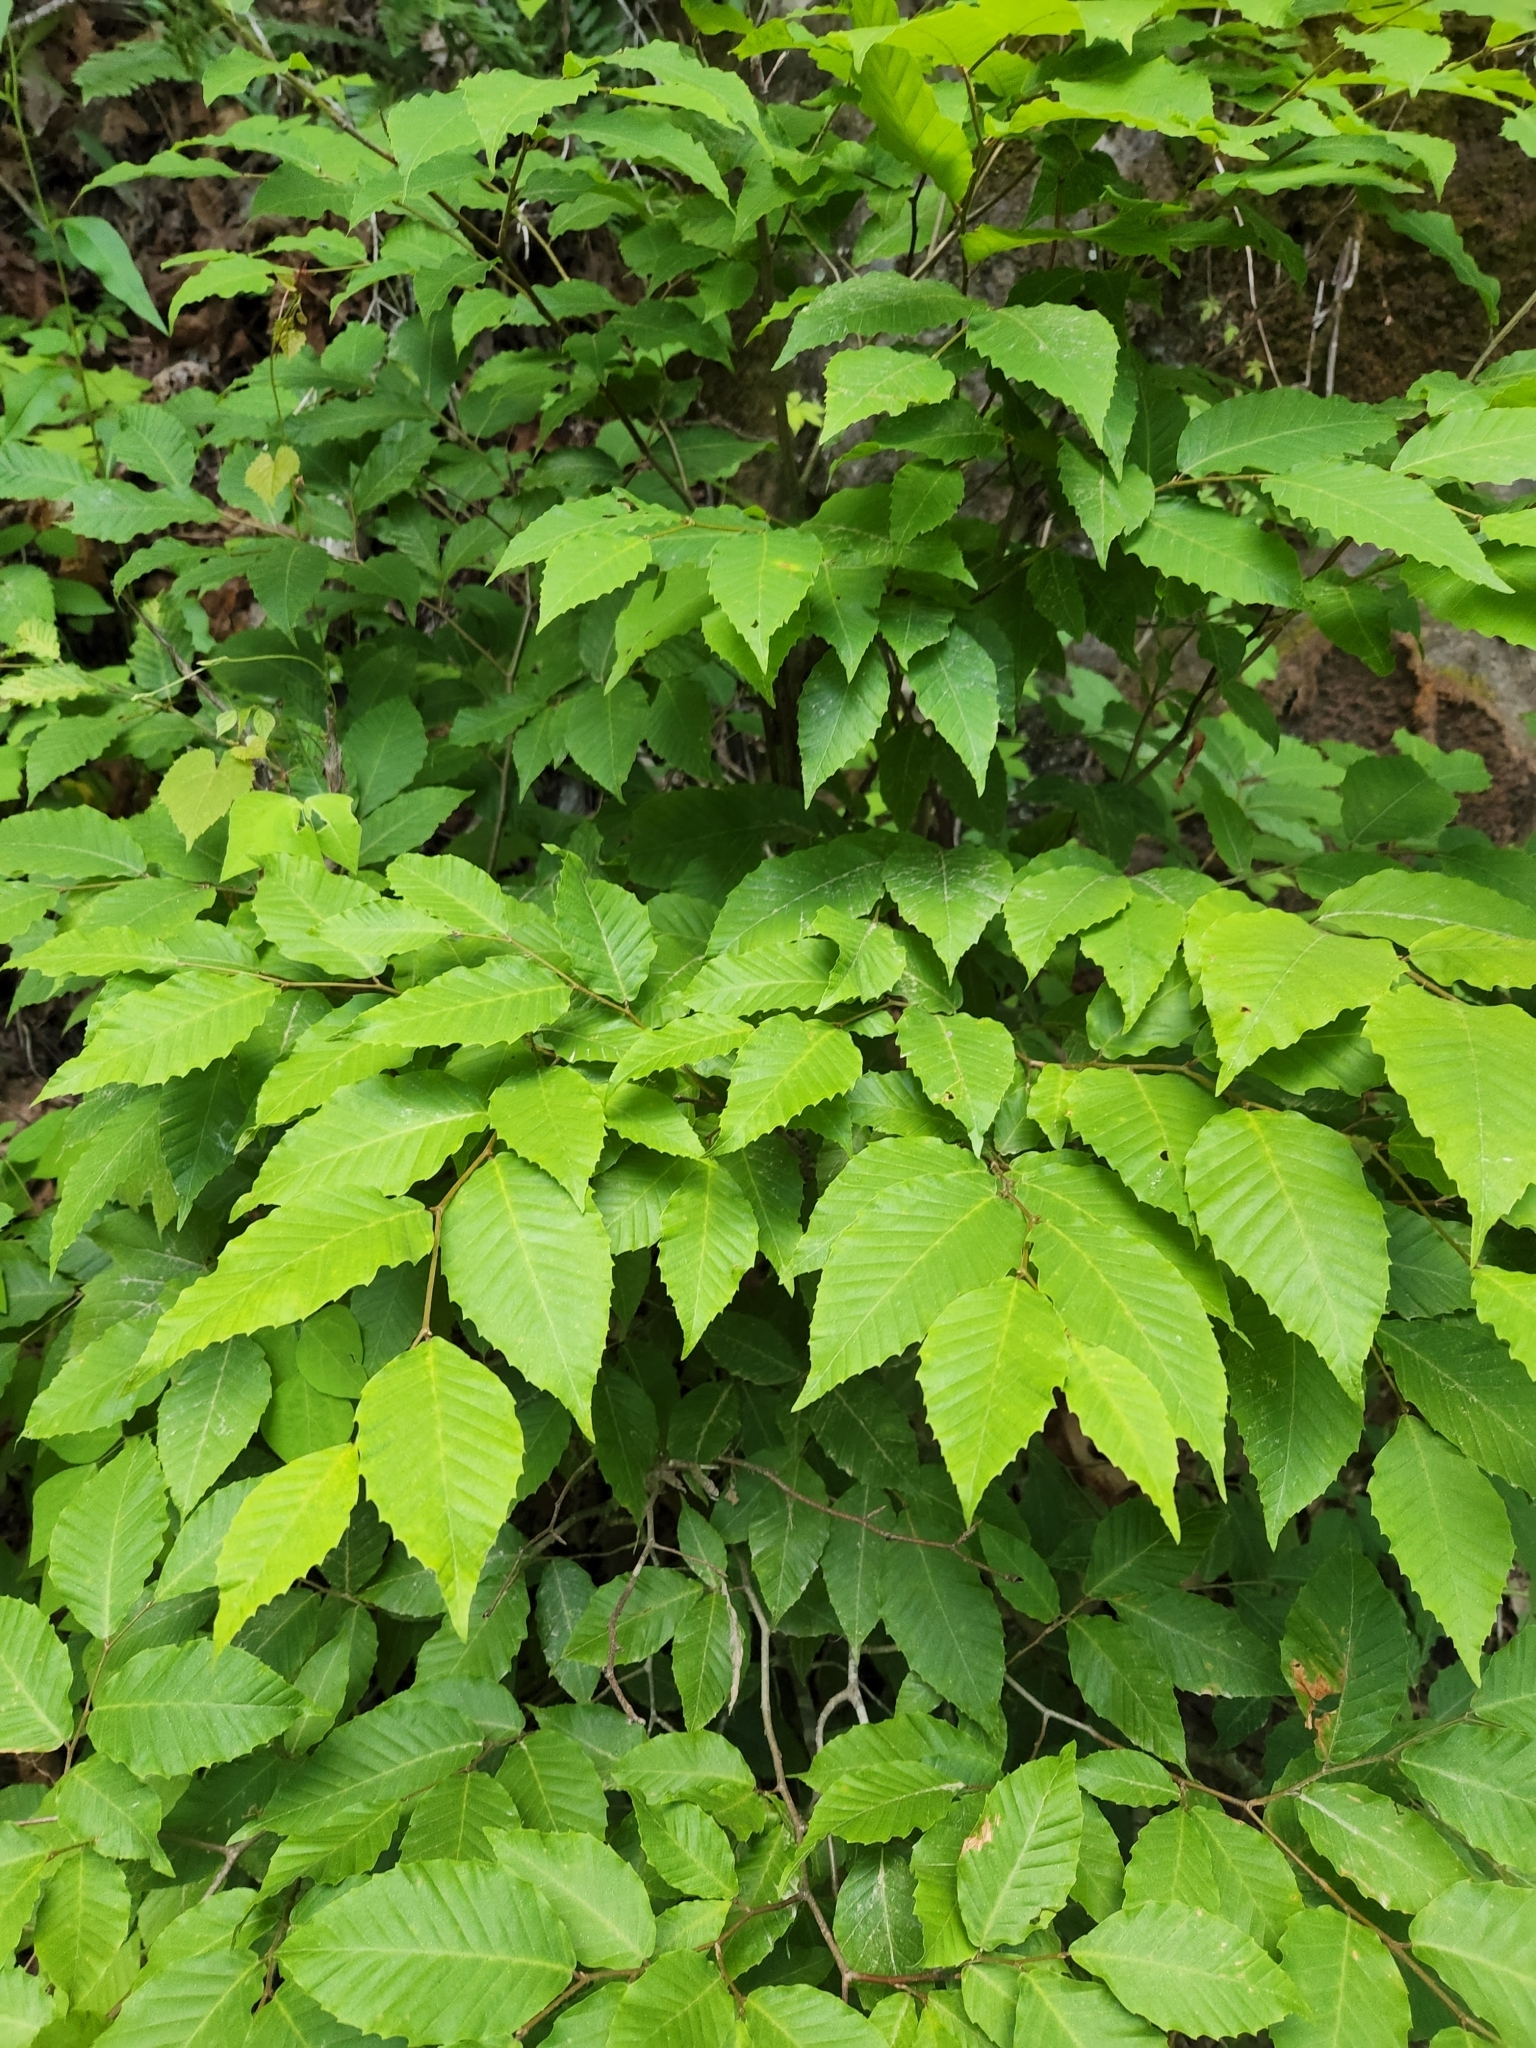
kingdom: Plantae
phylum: Tracheophyta
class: Magnoliopsida
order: Fagales
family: Fagaceae
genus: Fagus
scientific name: Fagus grandifolia
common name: American beech
